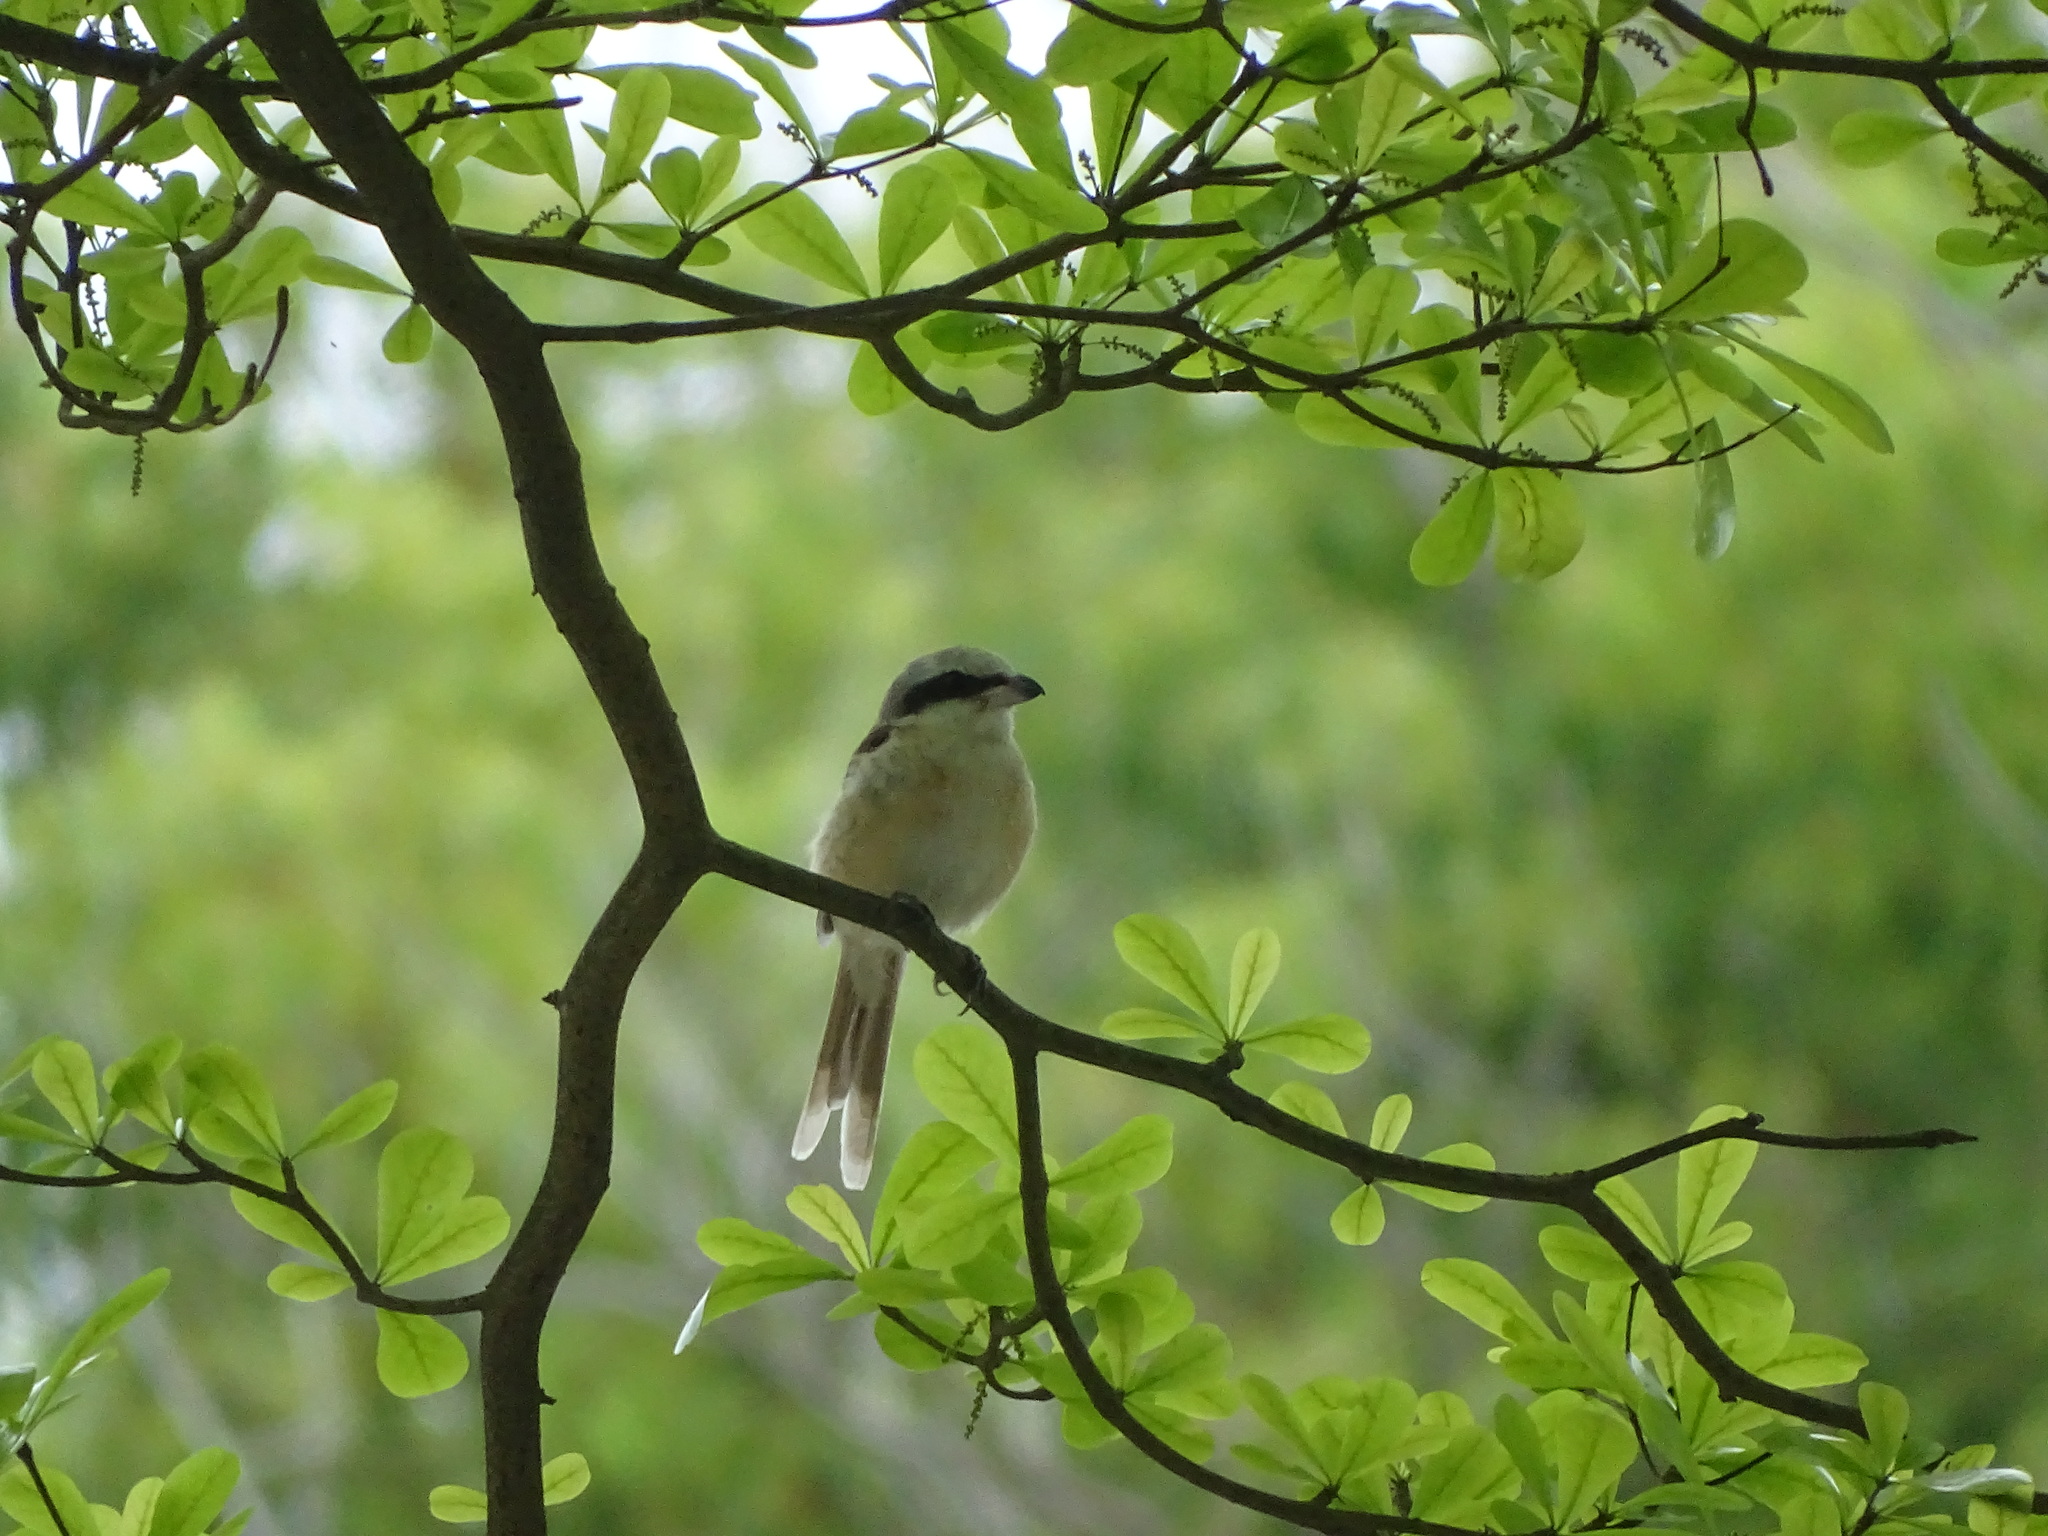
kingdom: Animalia
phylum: Chordata
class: Aves
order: Passeriformes
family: Laniidae
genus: Lanius
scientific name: Lanius cristatus
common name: Brown shrike
